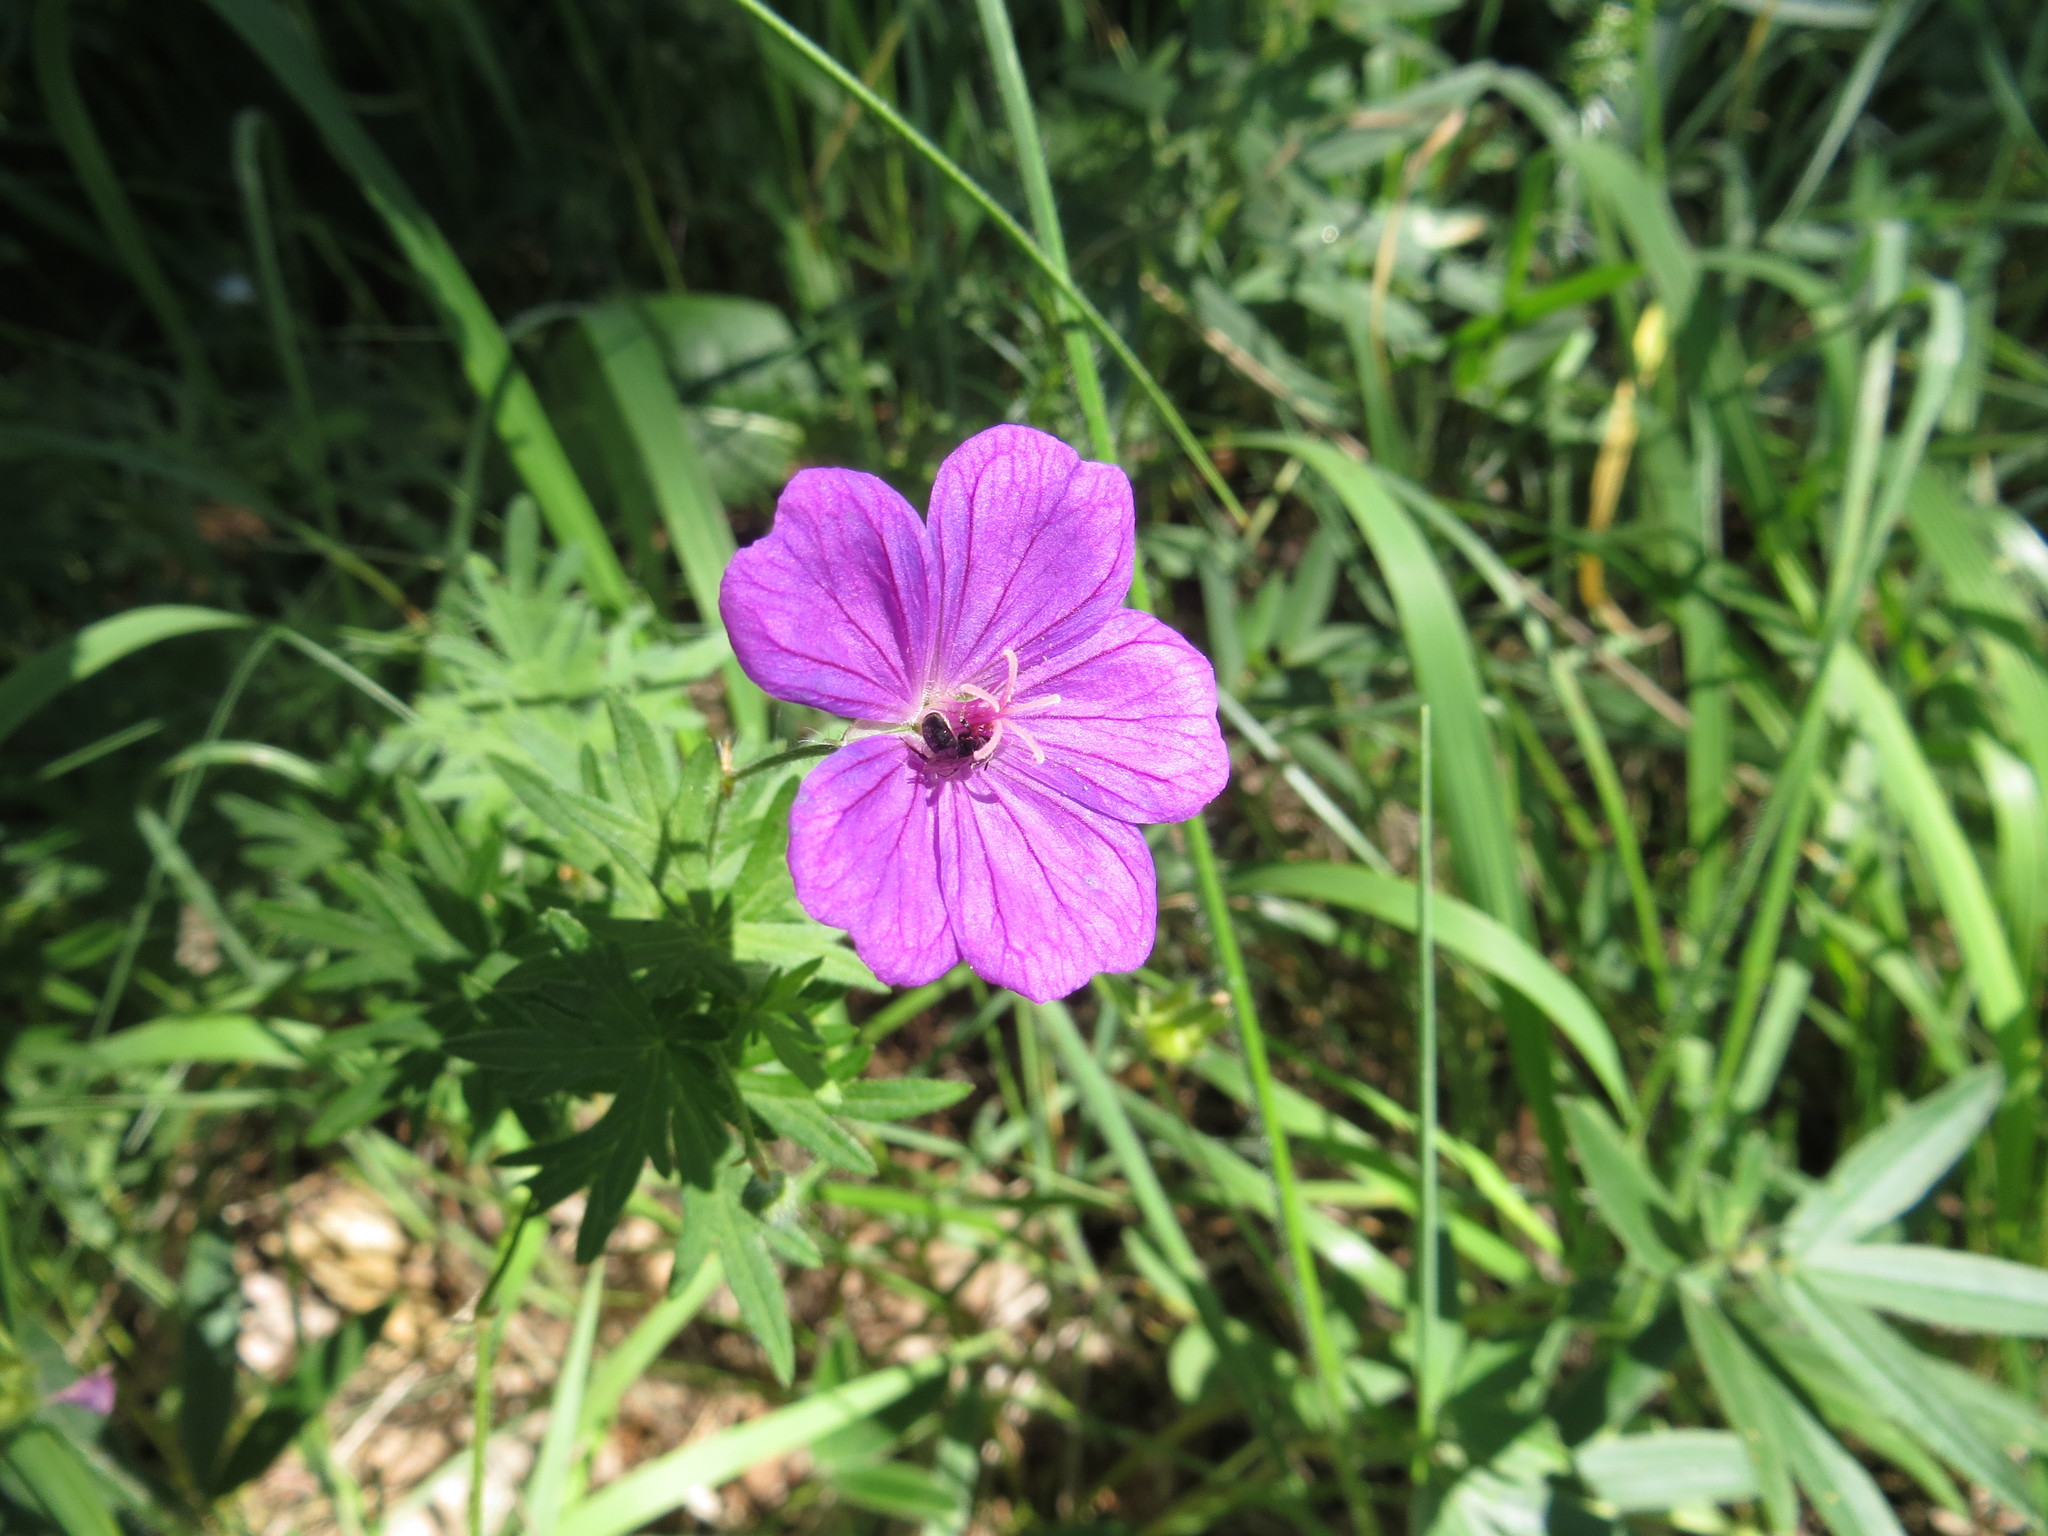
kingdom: Plantae
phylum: Tracheophyta
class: Magnoliopsida
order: Geraniales
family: Geraniaceae
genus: Geranium
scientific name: Geranium sanguineum
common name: Bloody crane's-bill
